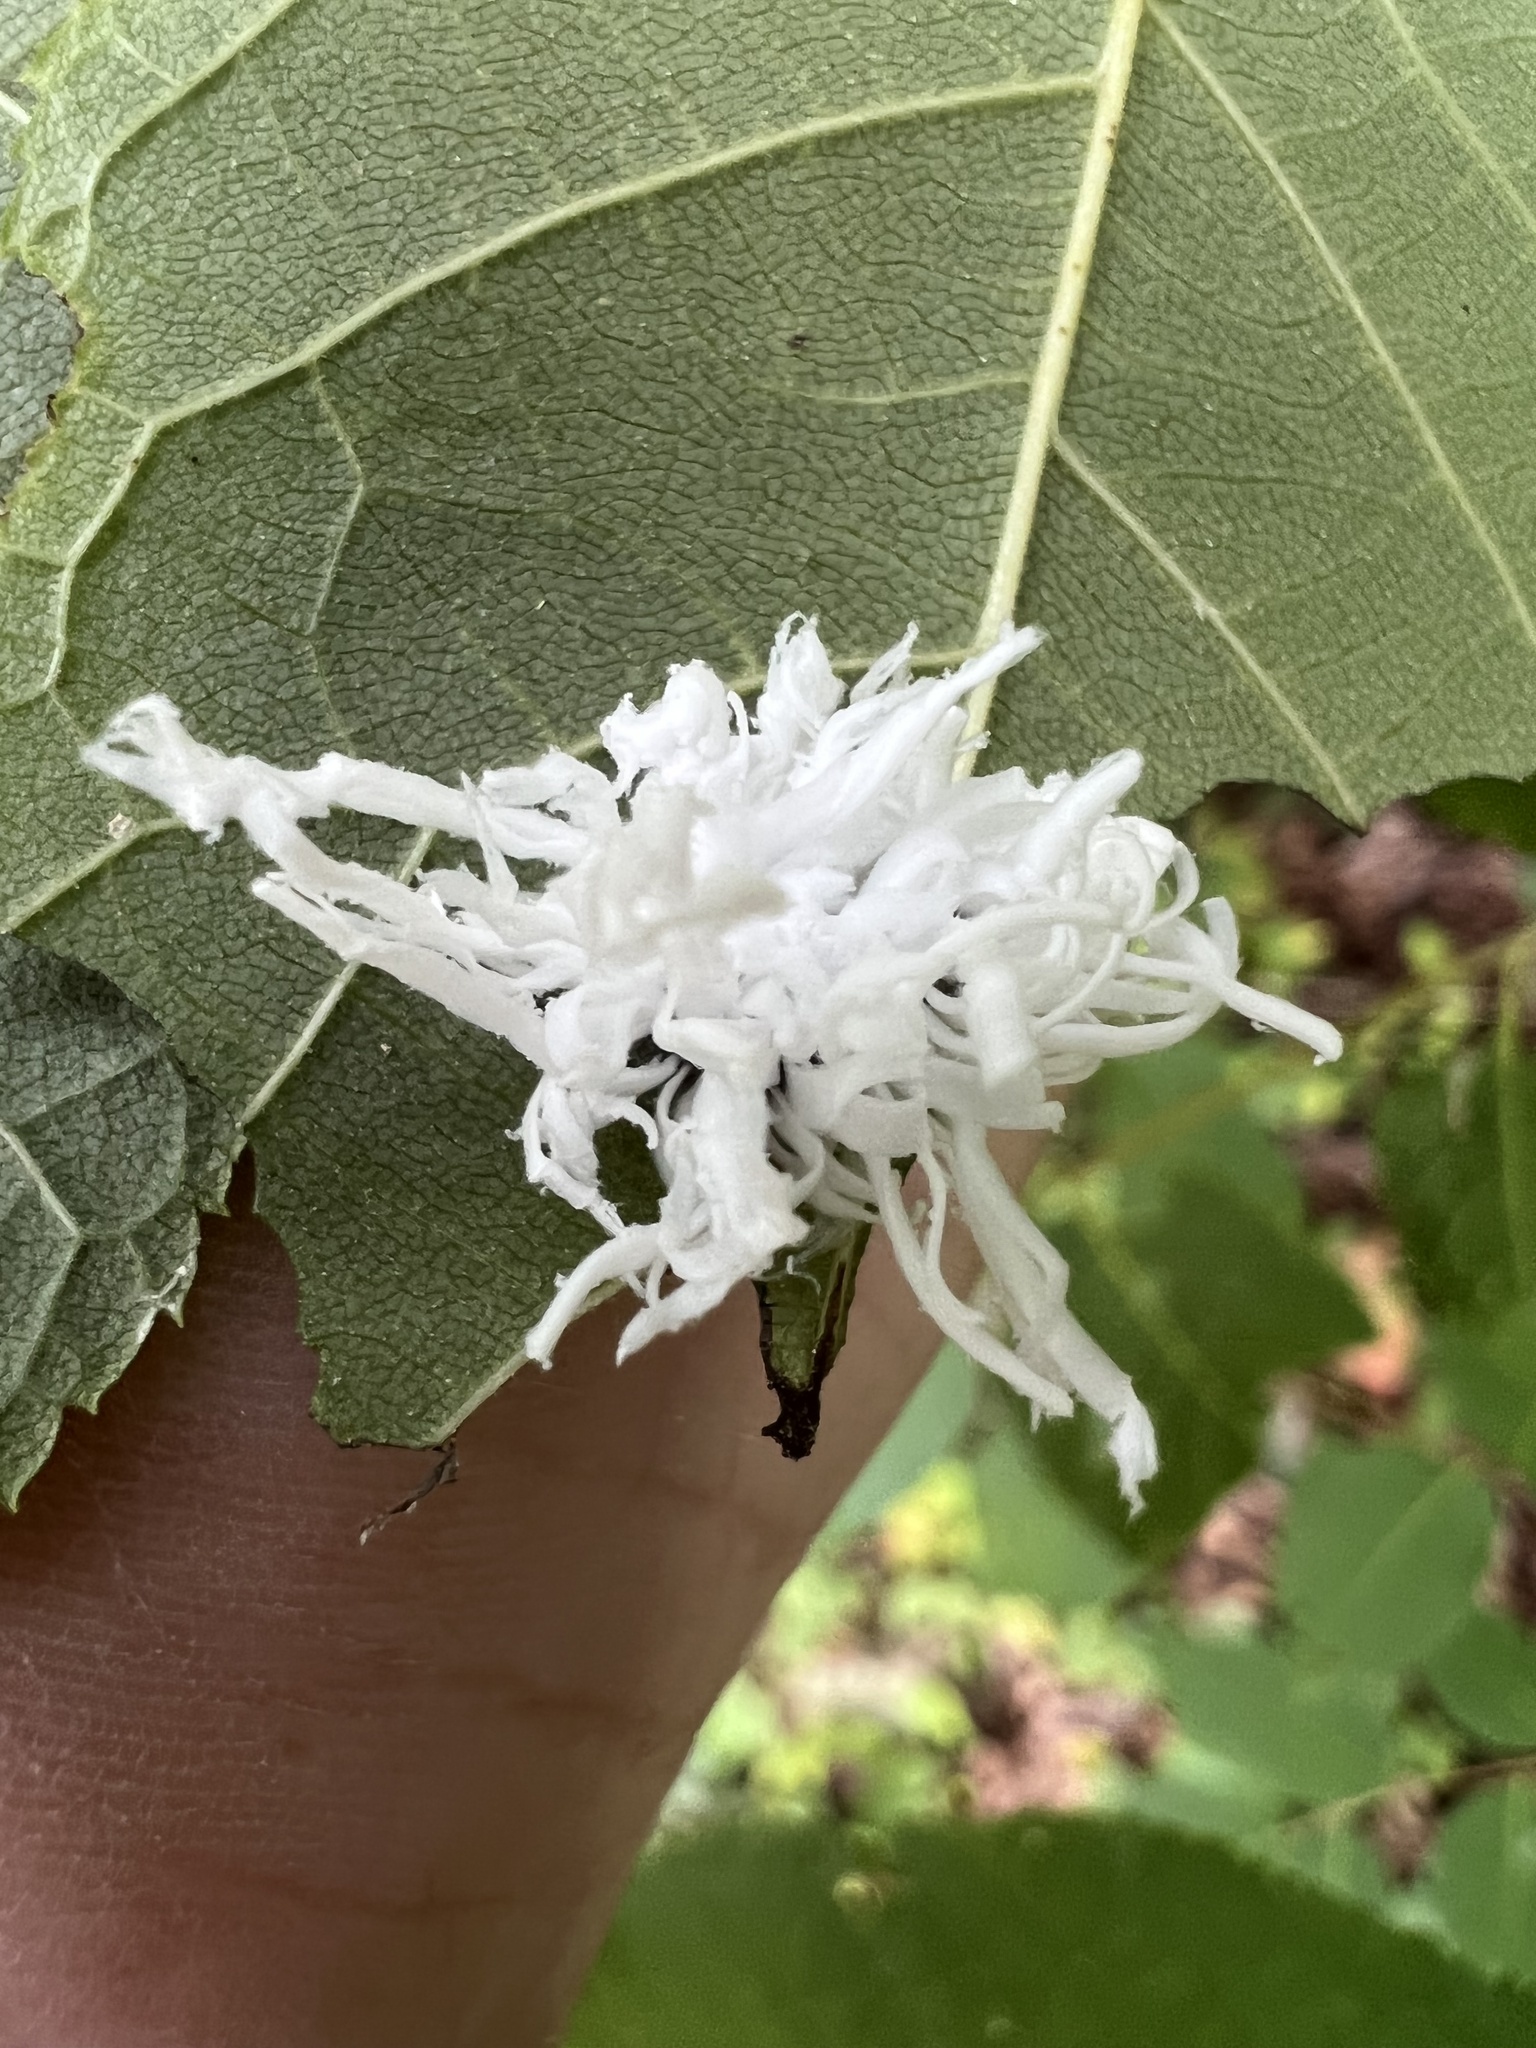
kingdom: Animalia
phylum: Arthropoda
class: Insecta
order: Hymenoptera
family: Tenthredinidae
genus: Eriocampa
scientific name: Eriocampa juglandis
